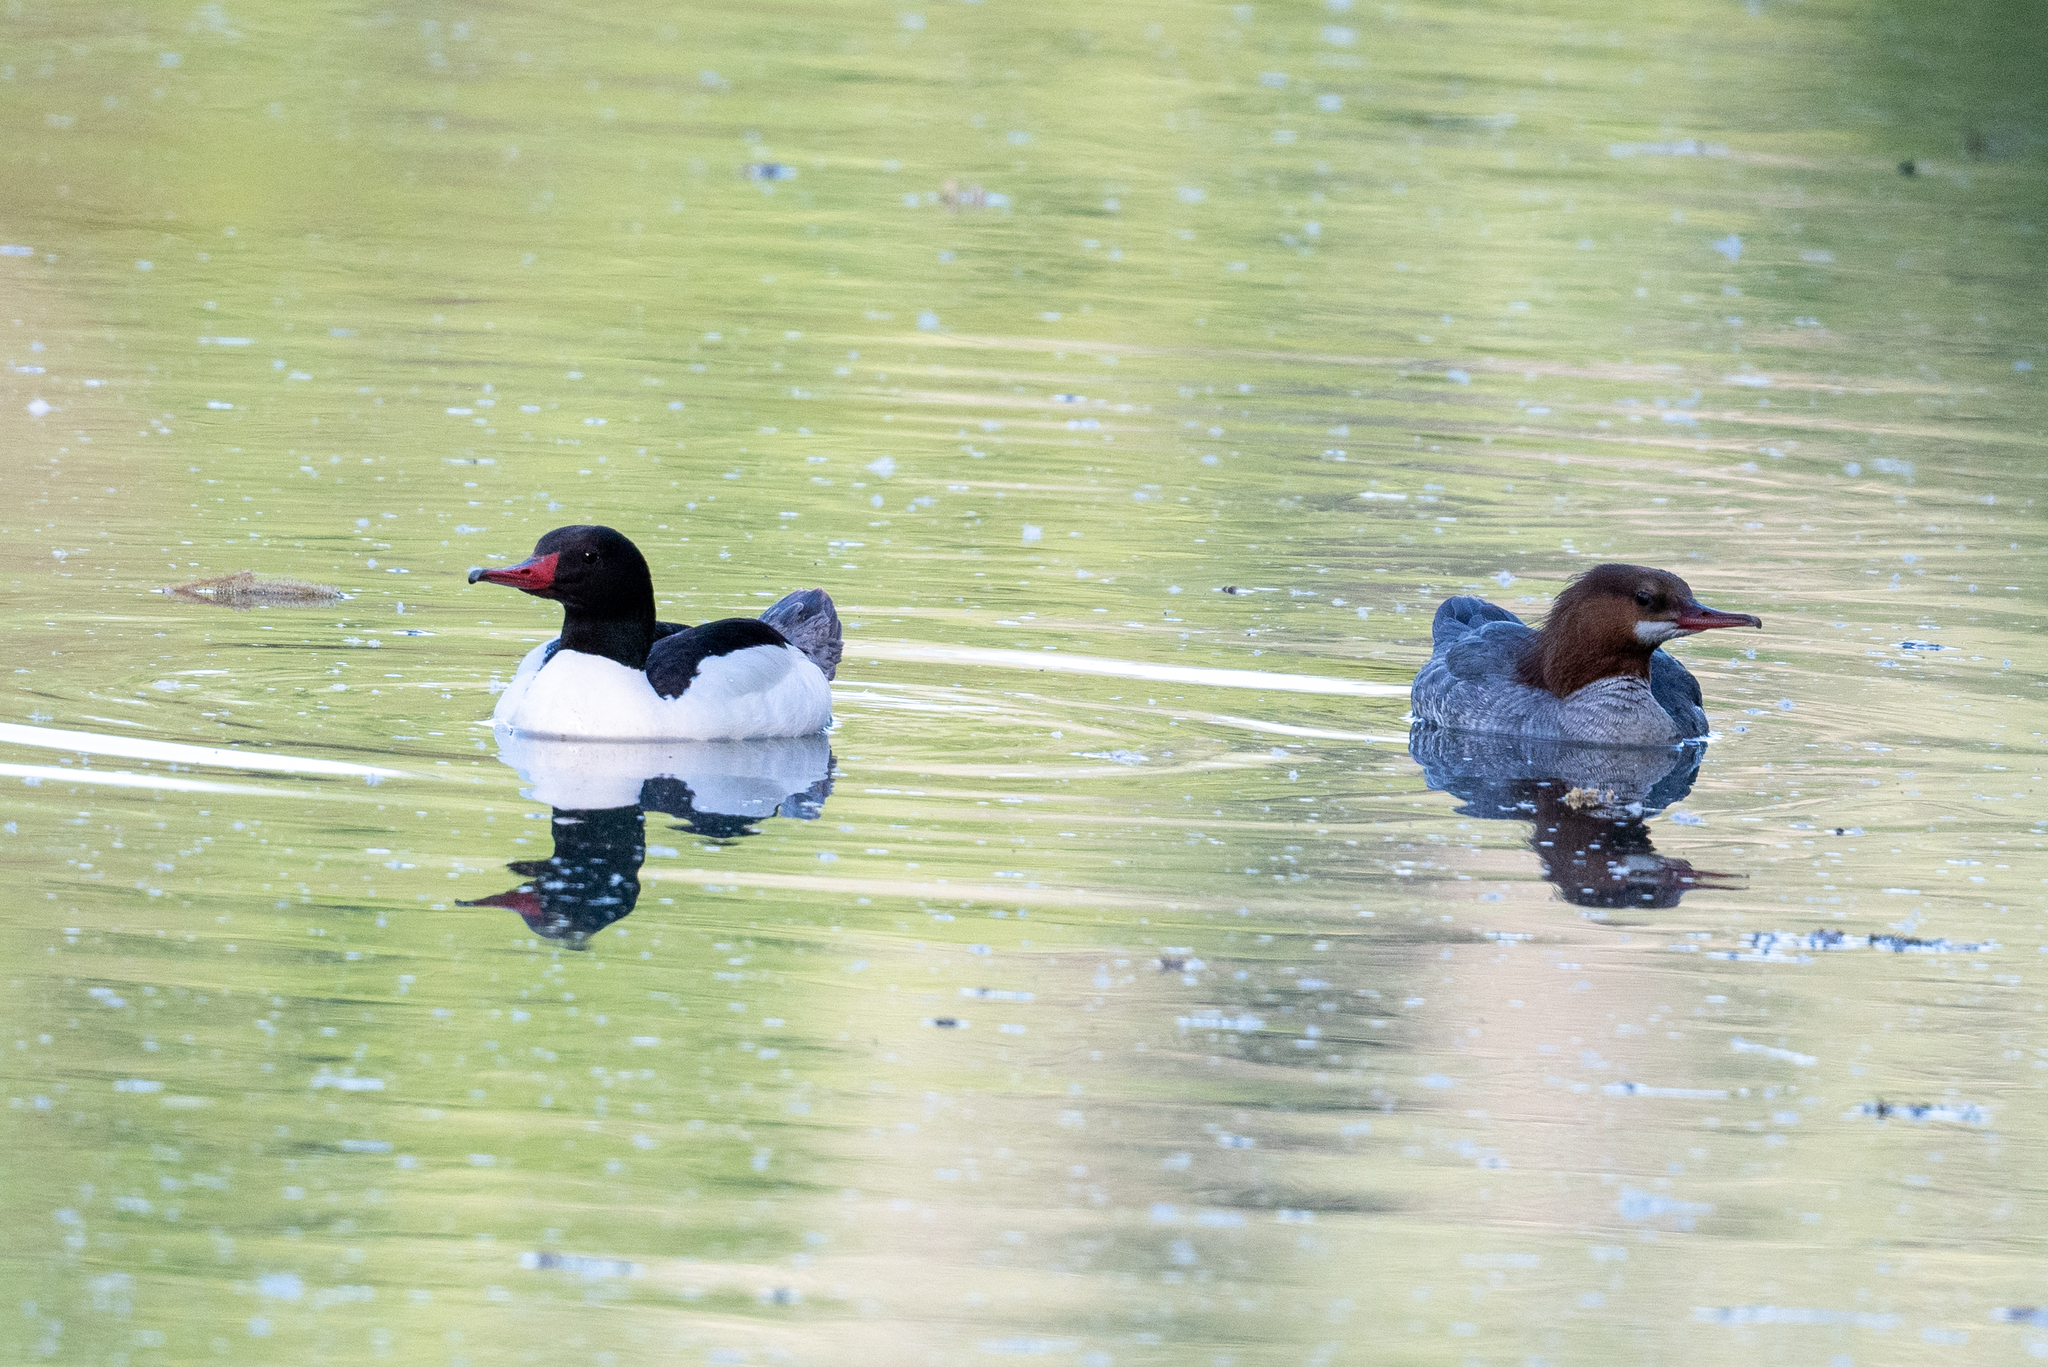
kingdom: Animalia
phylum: Chordata
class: Aves
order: Anseriformes
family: Anatidae
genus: Mergus
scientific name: Mergus merganser
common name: Common merganser
